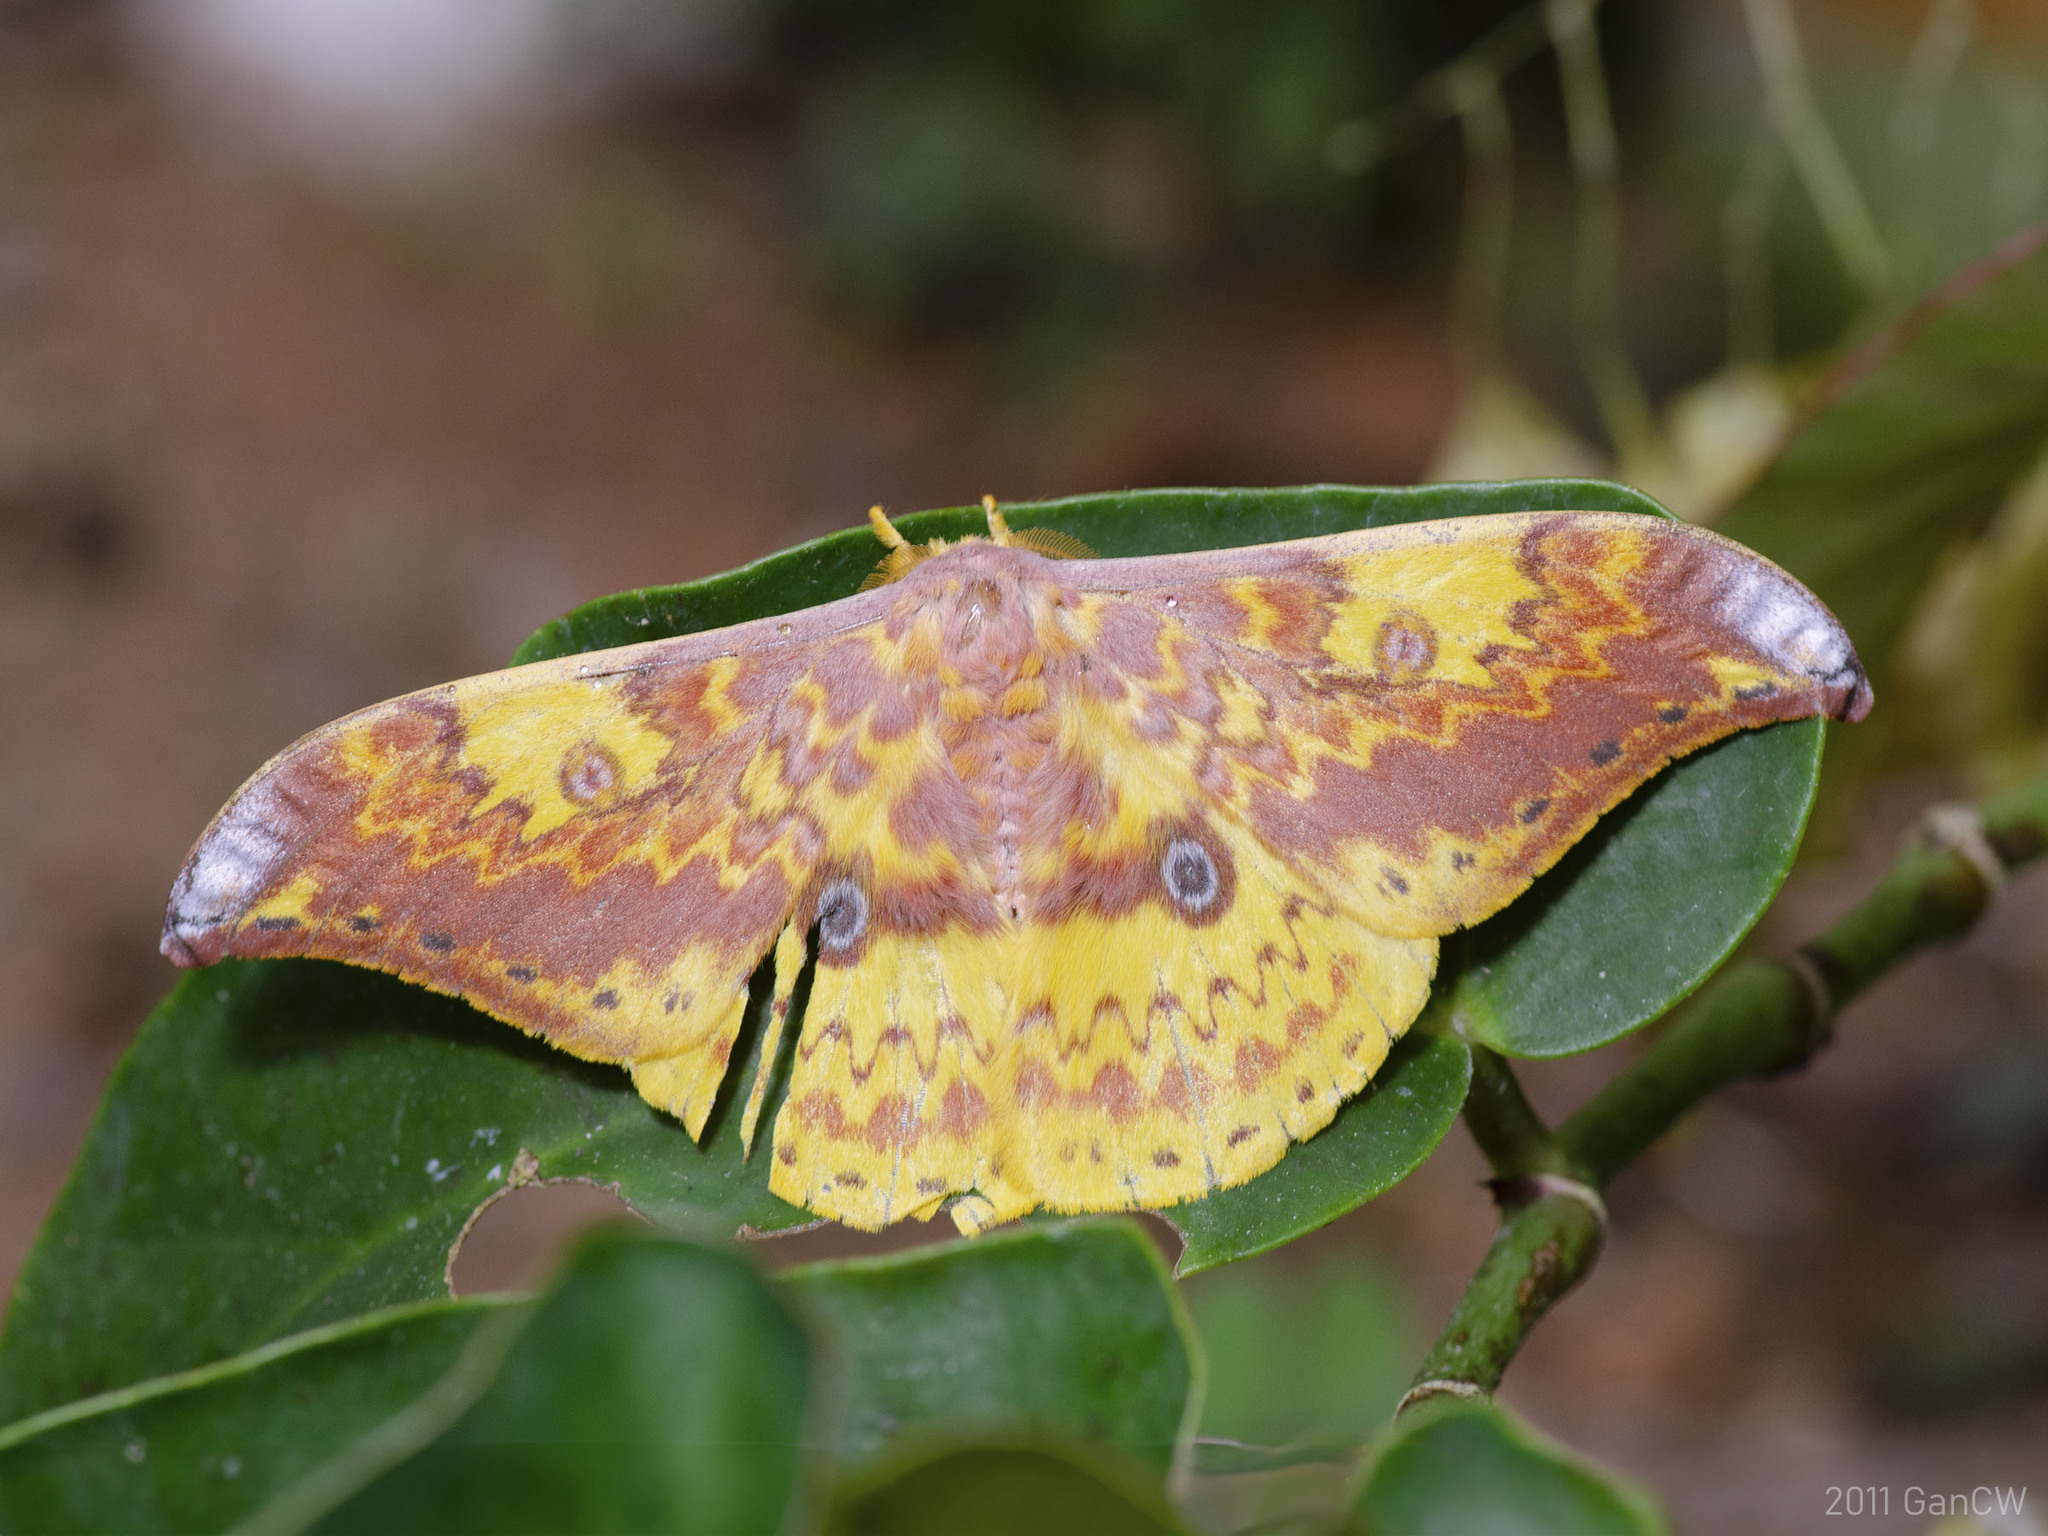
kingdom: Animalia
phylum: Arthropoda
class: Insecta
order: Lepidoptera
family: Saturniidae
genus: Lemaireia
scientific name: Lemaireia loepoides
